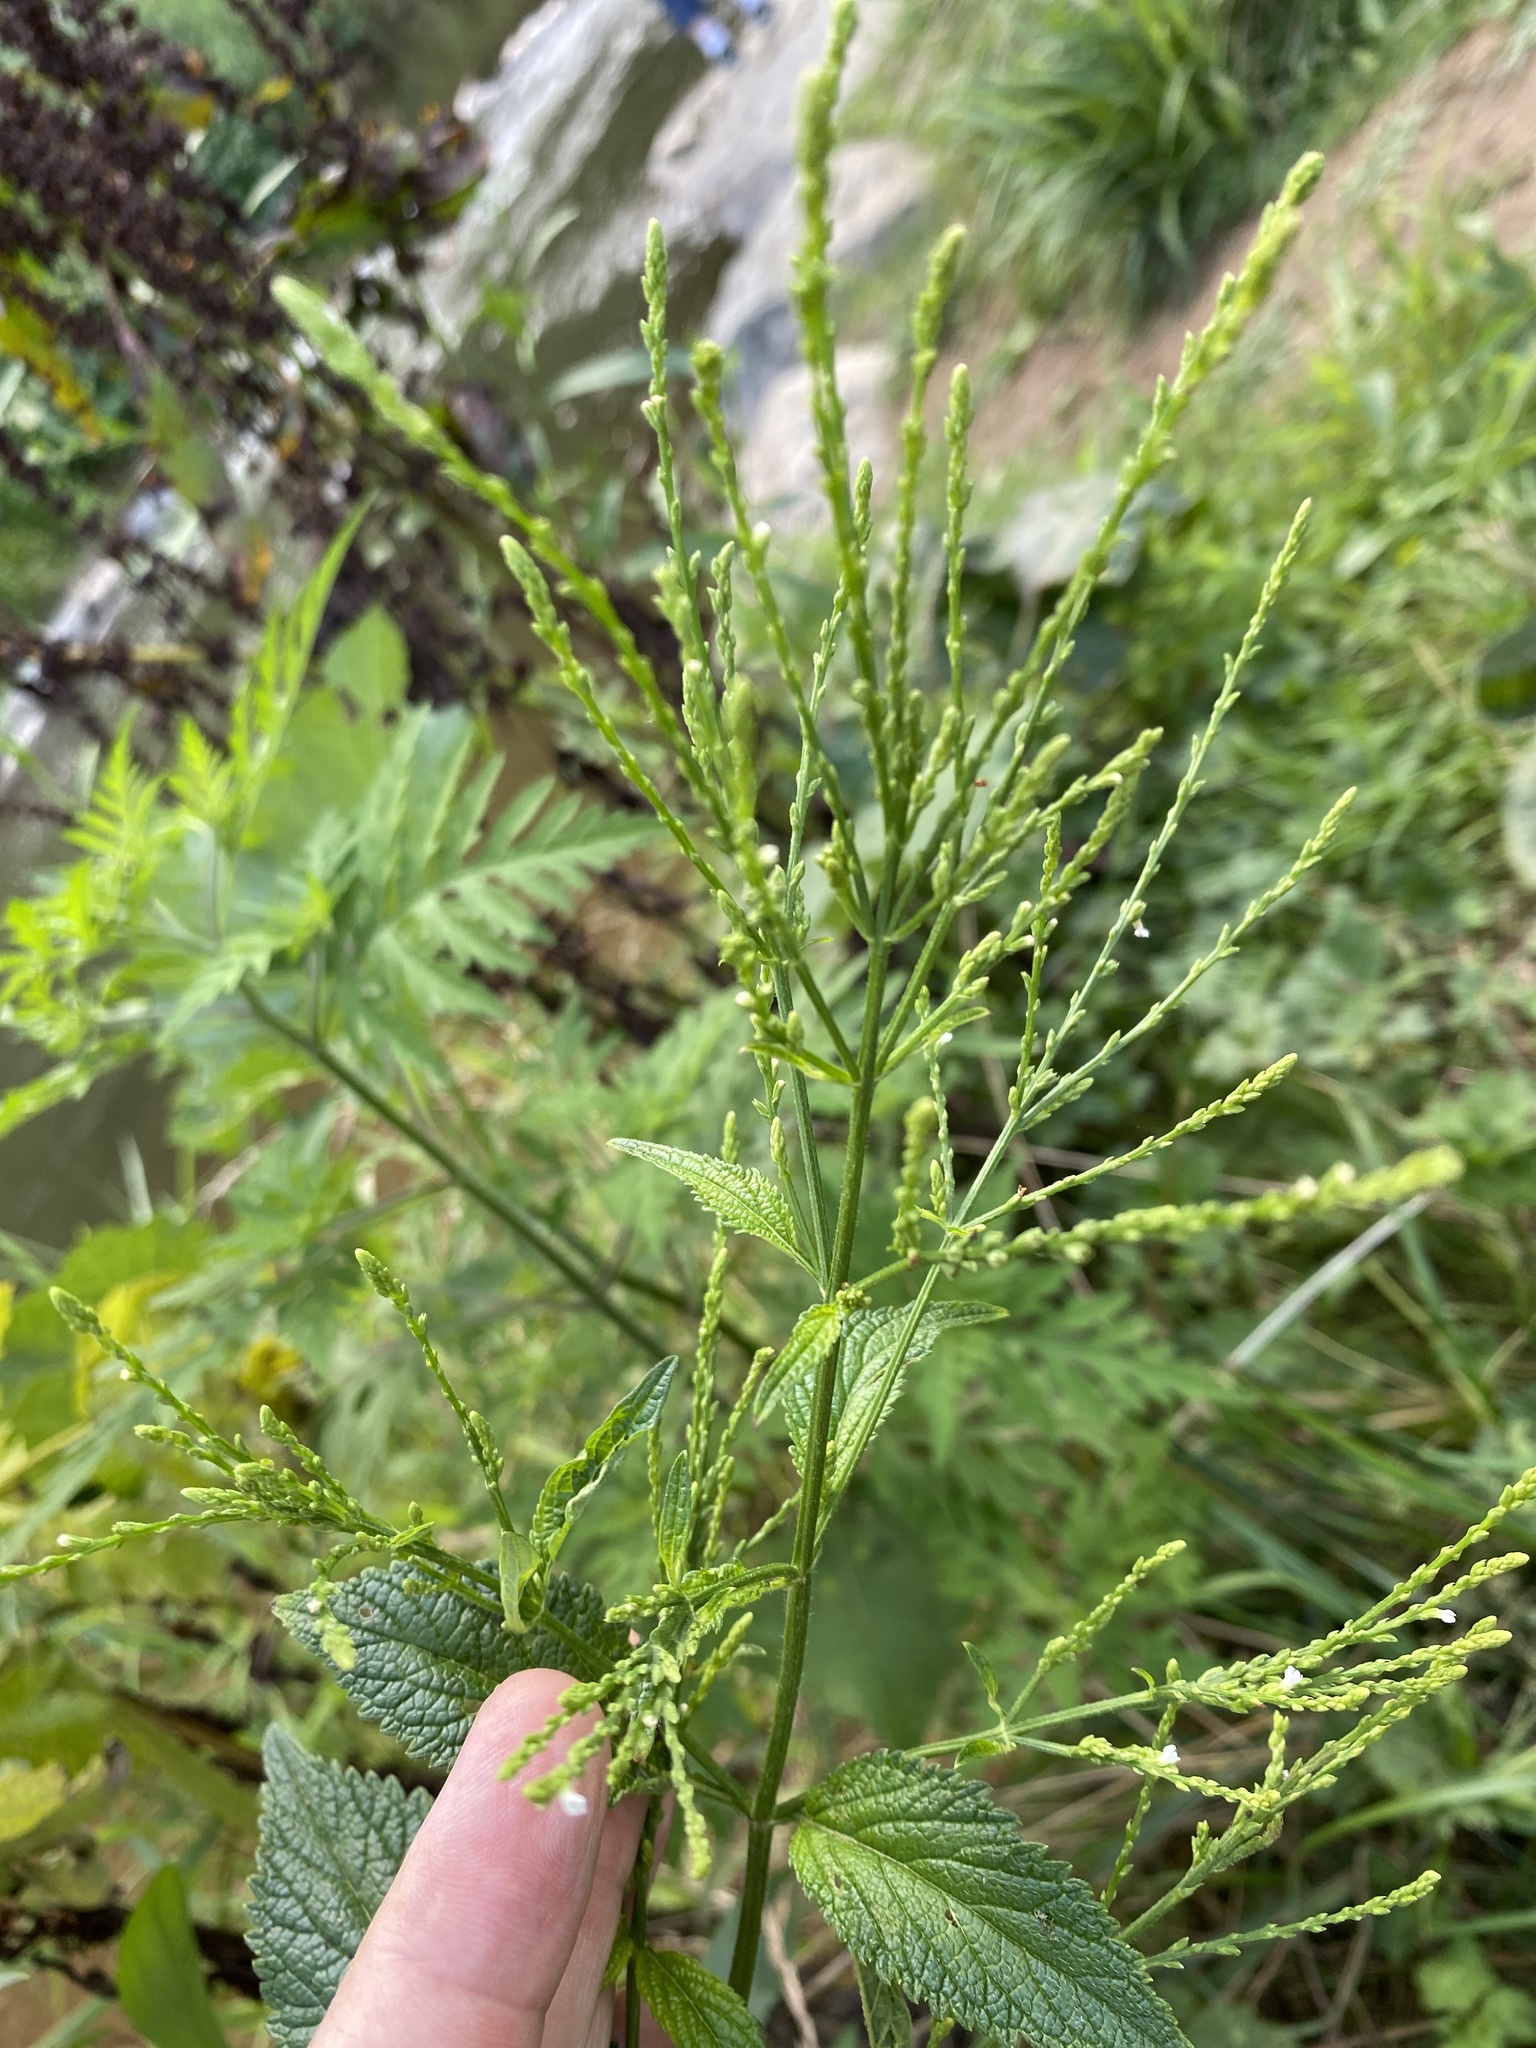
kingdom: Plantae
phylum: Tracheophyta
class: Magnoliopsida
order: Lamiales
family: Verbenaceae
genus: Verbena
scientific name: Verbena urticifolia
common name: Nettle-leaved vervain
